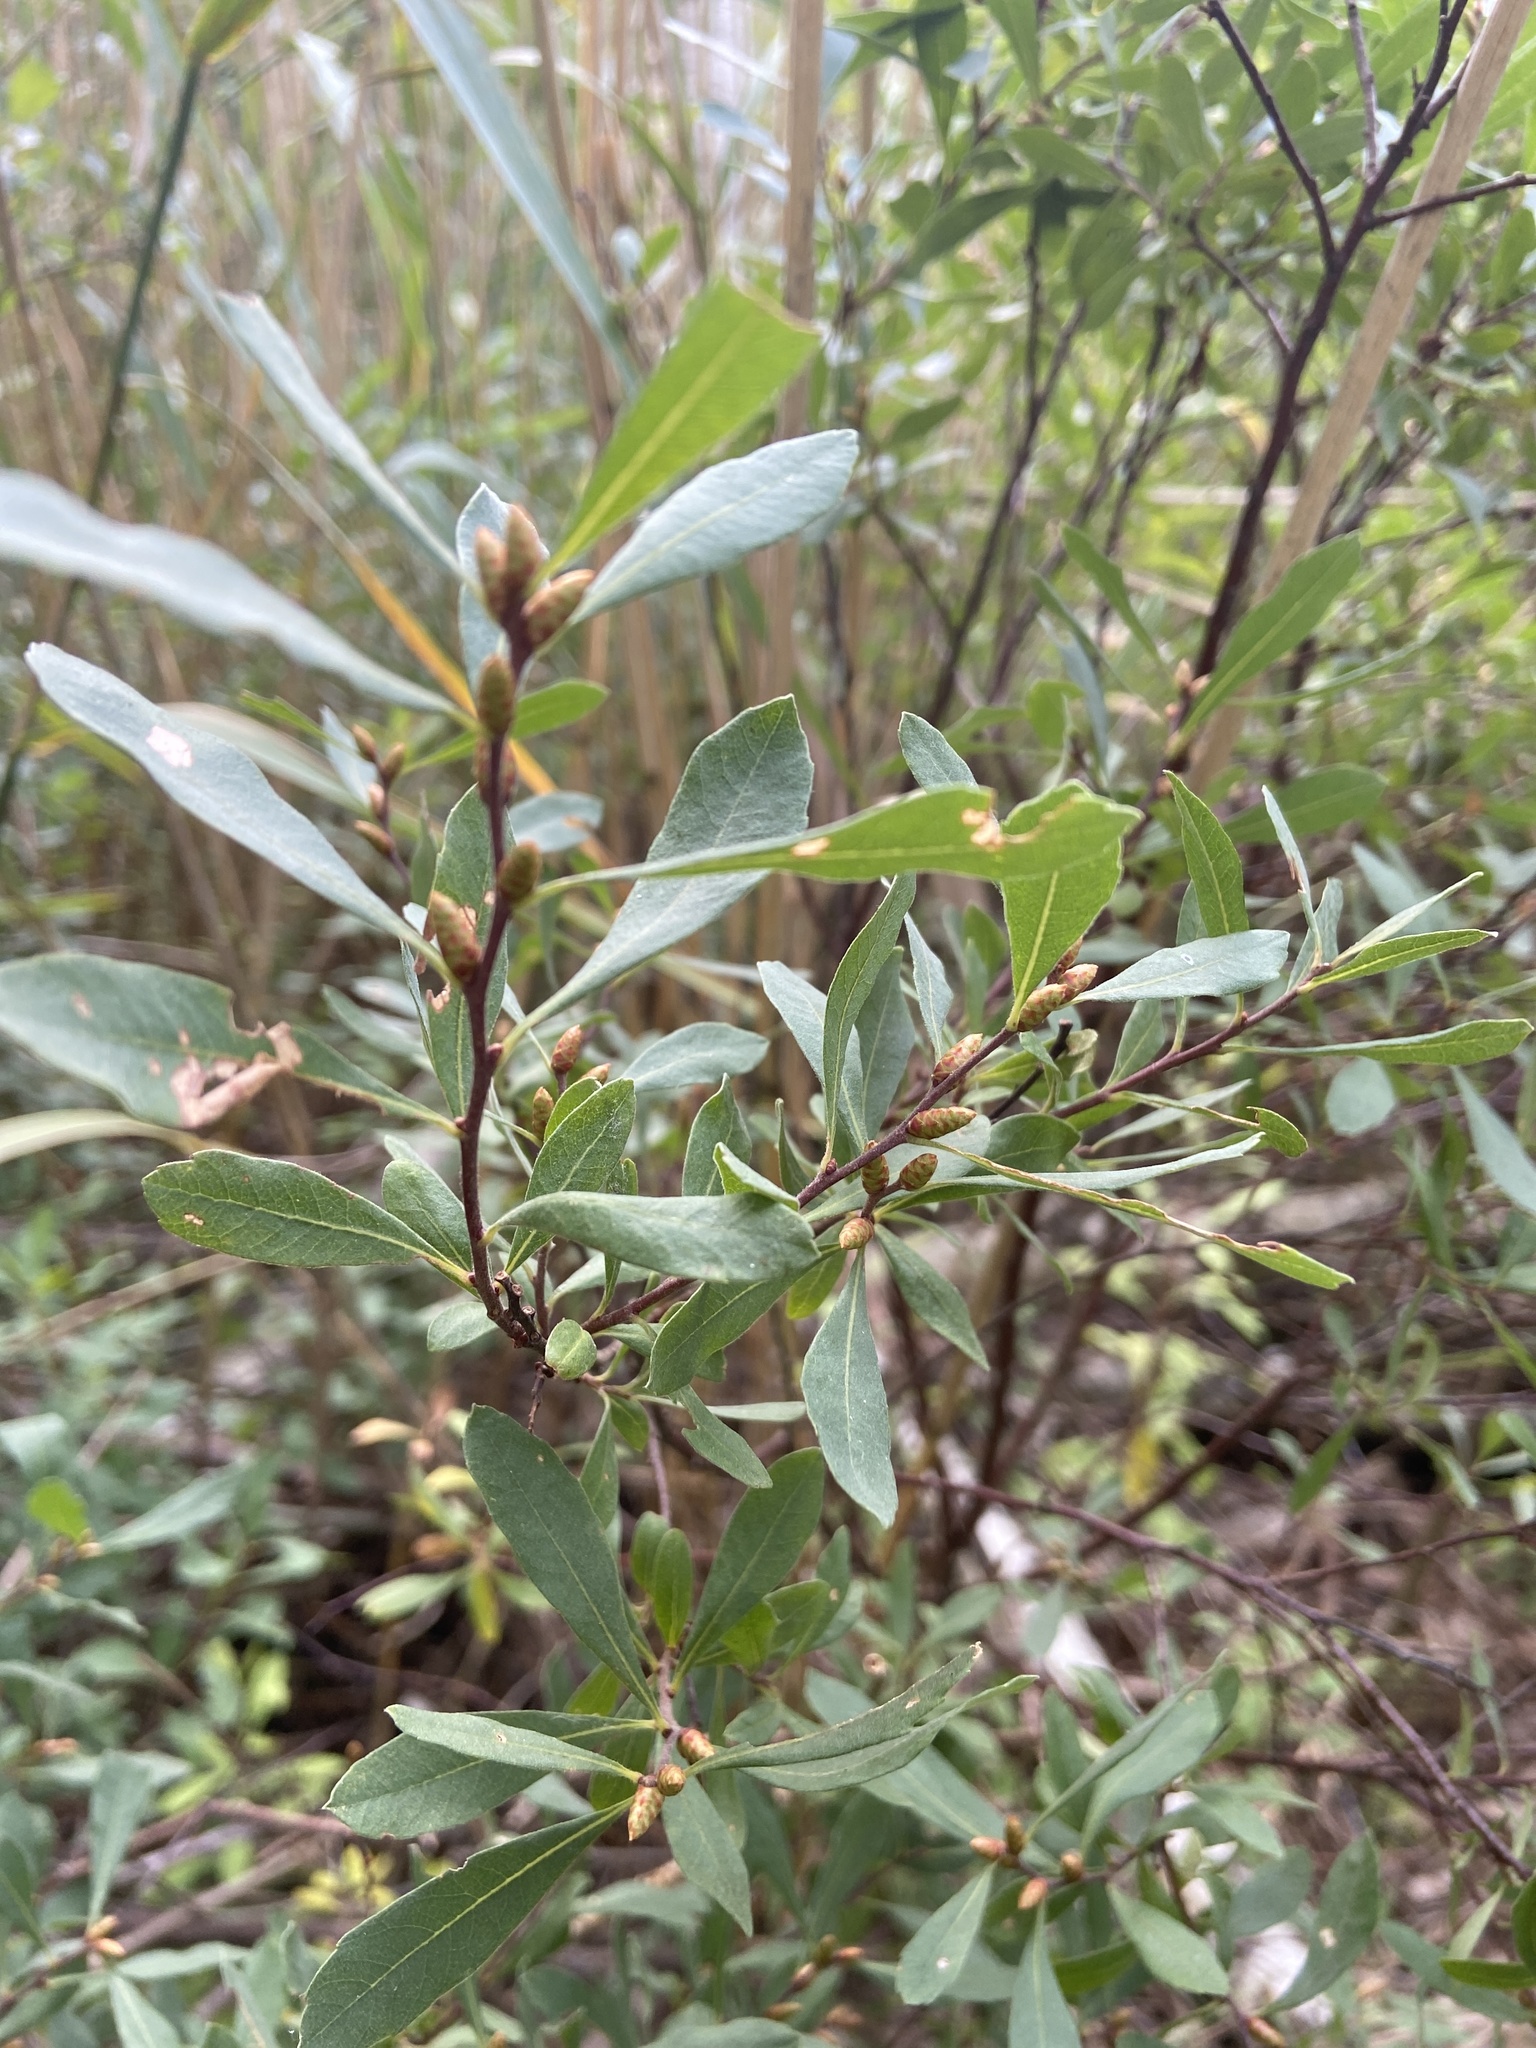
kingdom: Plantae
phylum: Tracheophyta
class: Magnoliopsida
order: Fagales
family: Myricaceae
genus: Myrica
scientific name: Myrica gale
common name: Sweet gale
